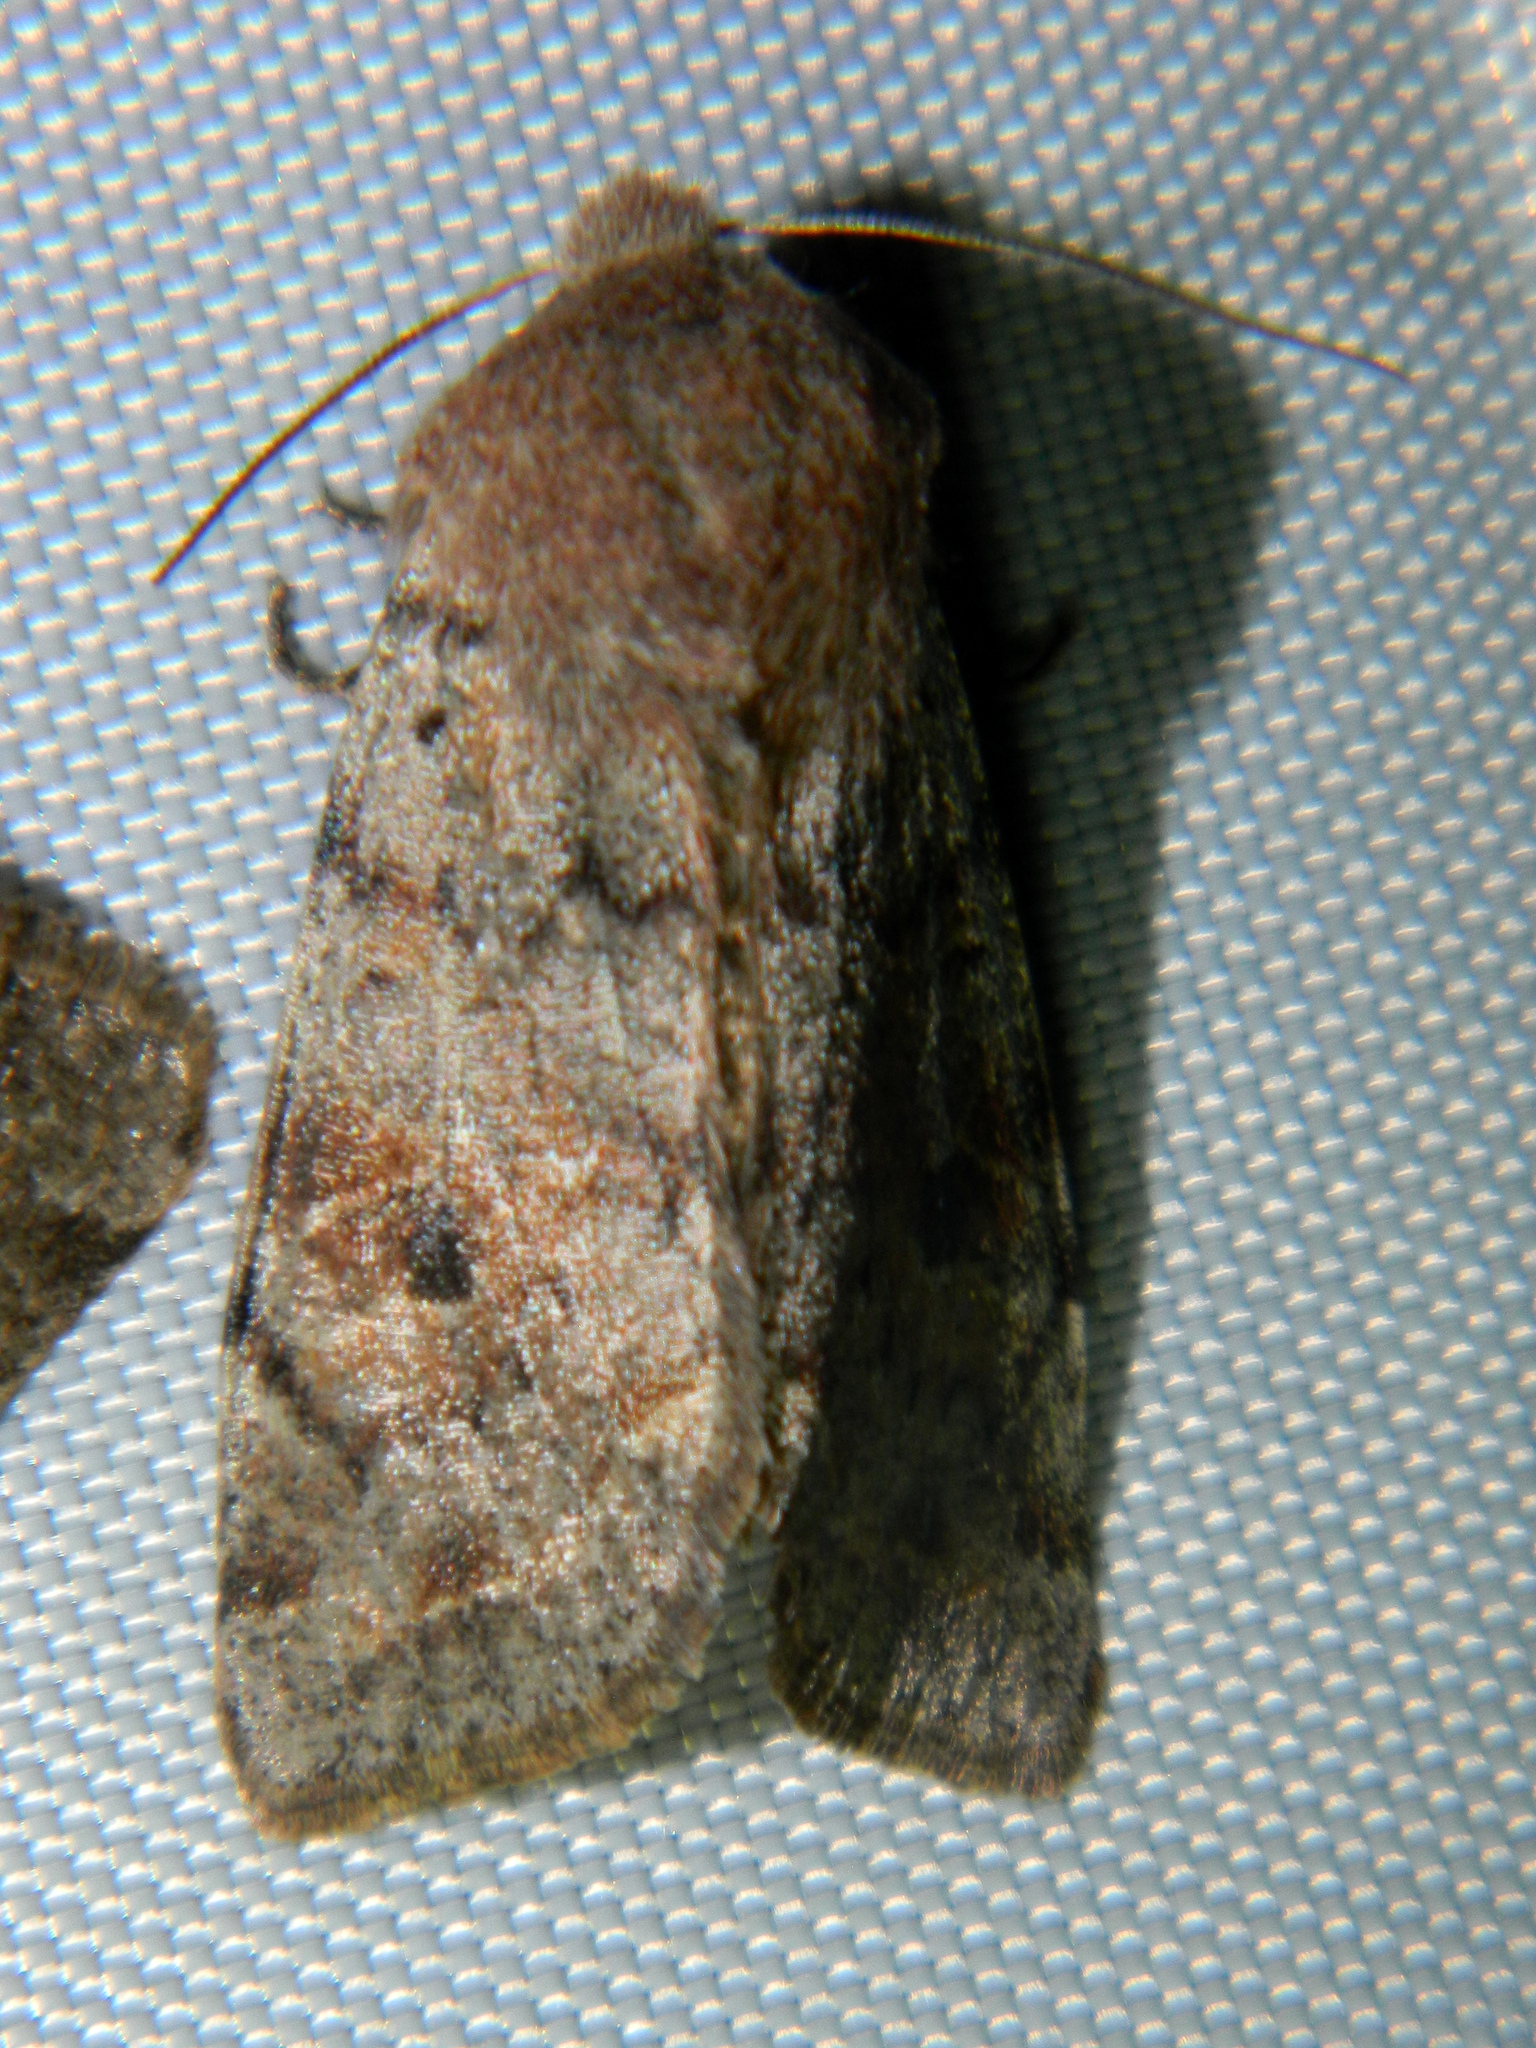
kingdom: Animalia
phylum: Arthropoda
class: Insecta
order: Lepidoptera
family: Noctuidae
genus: Orthosia
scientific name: Orthosia hibisci
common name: Green fruitworm
